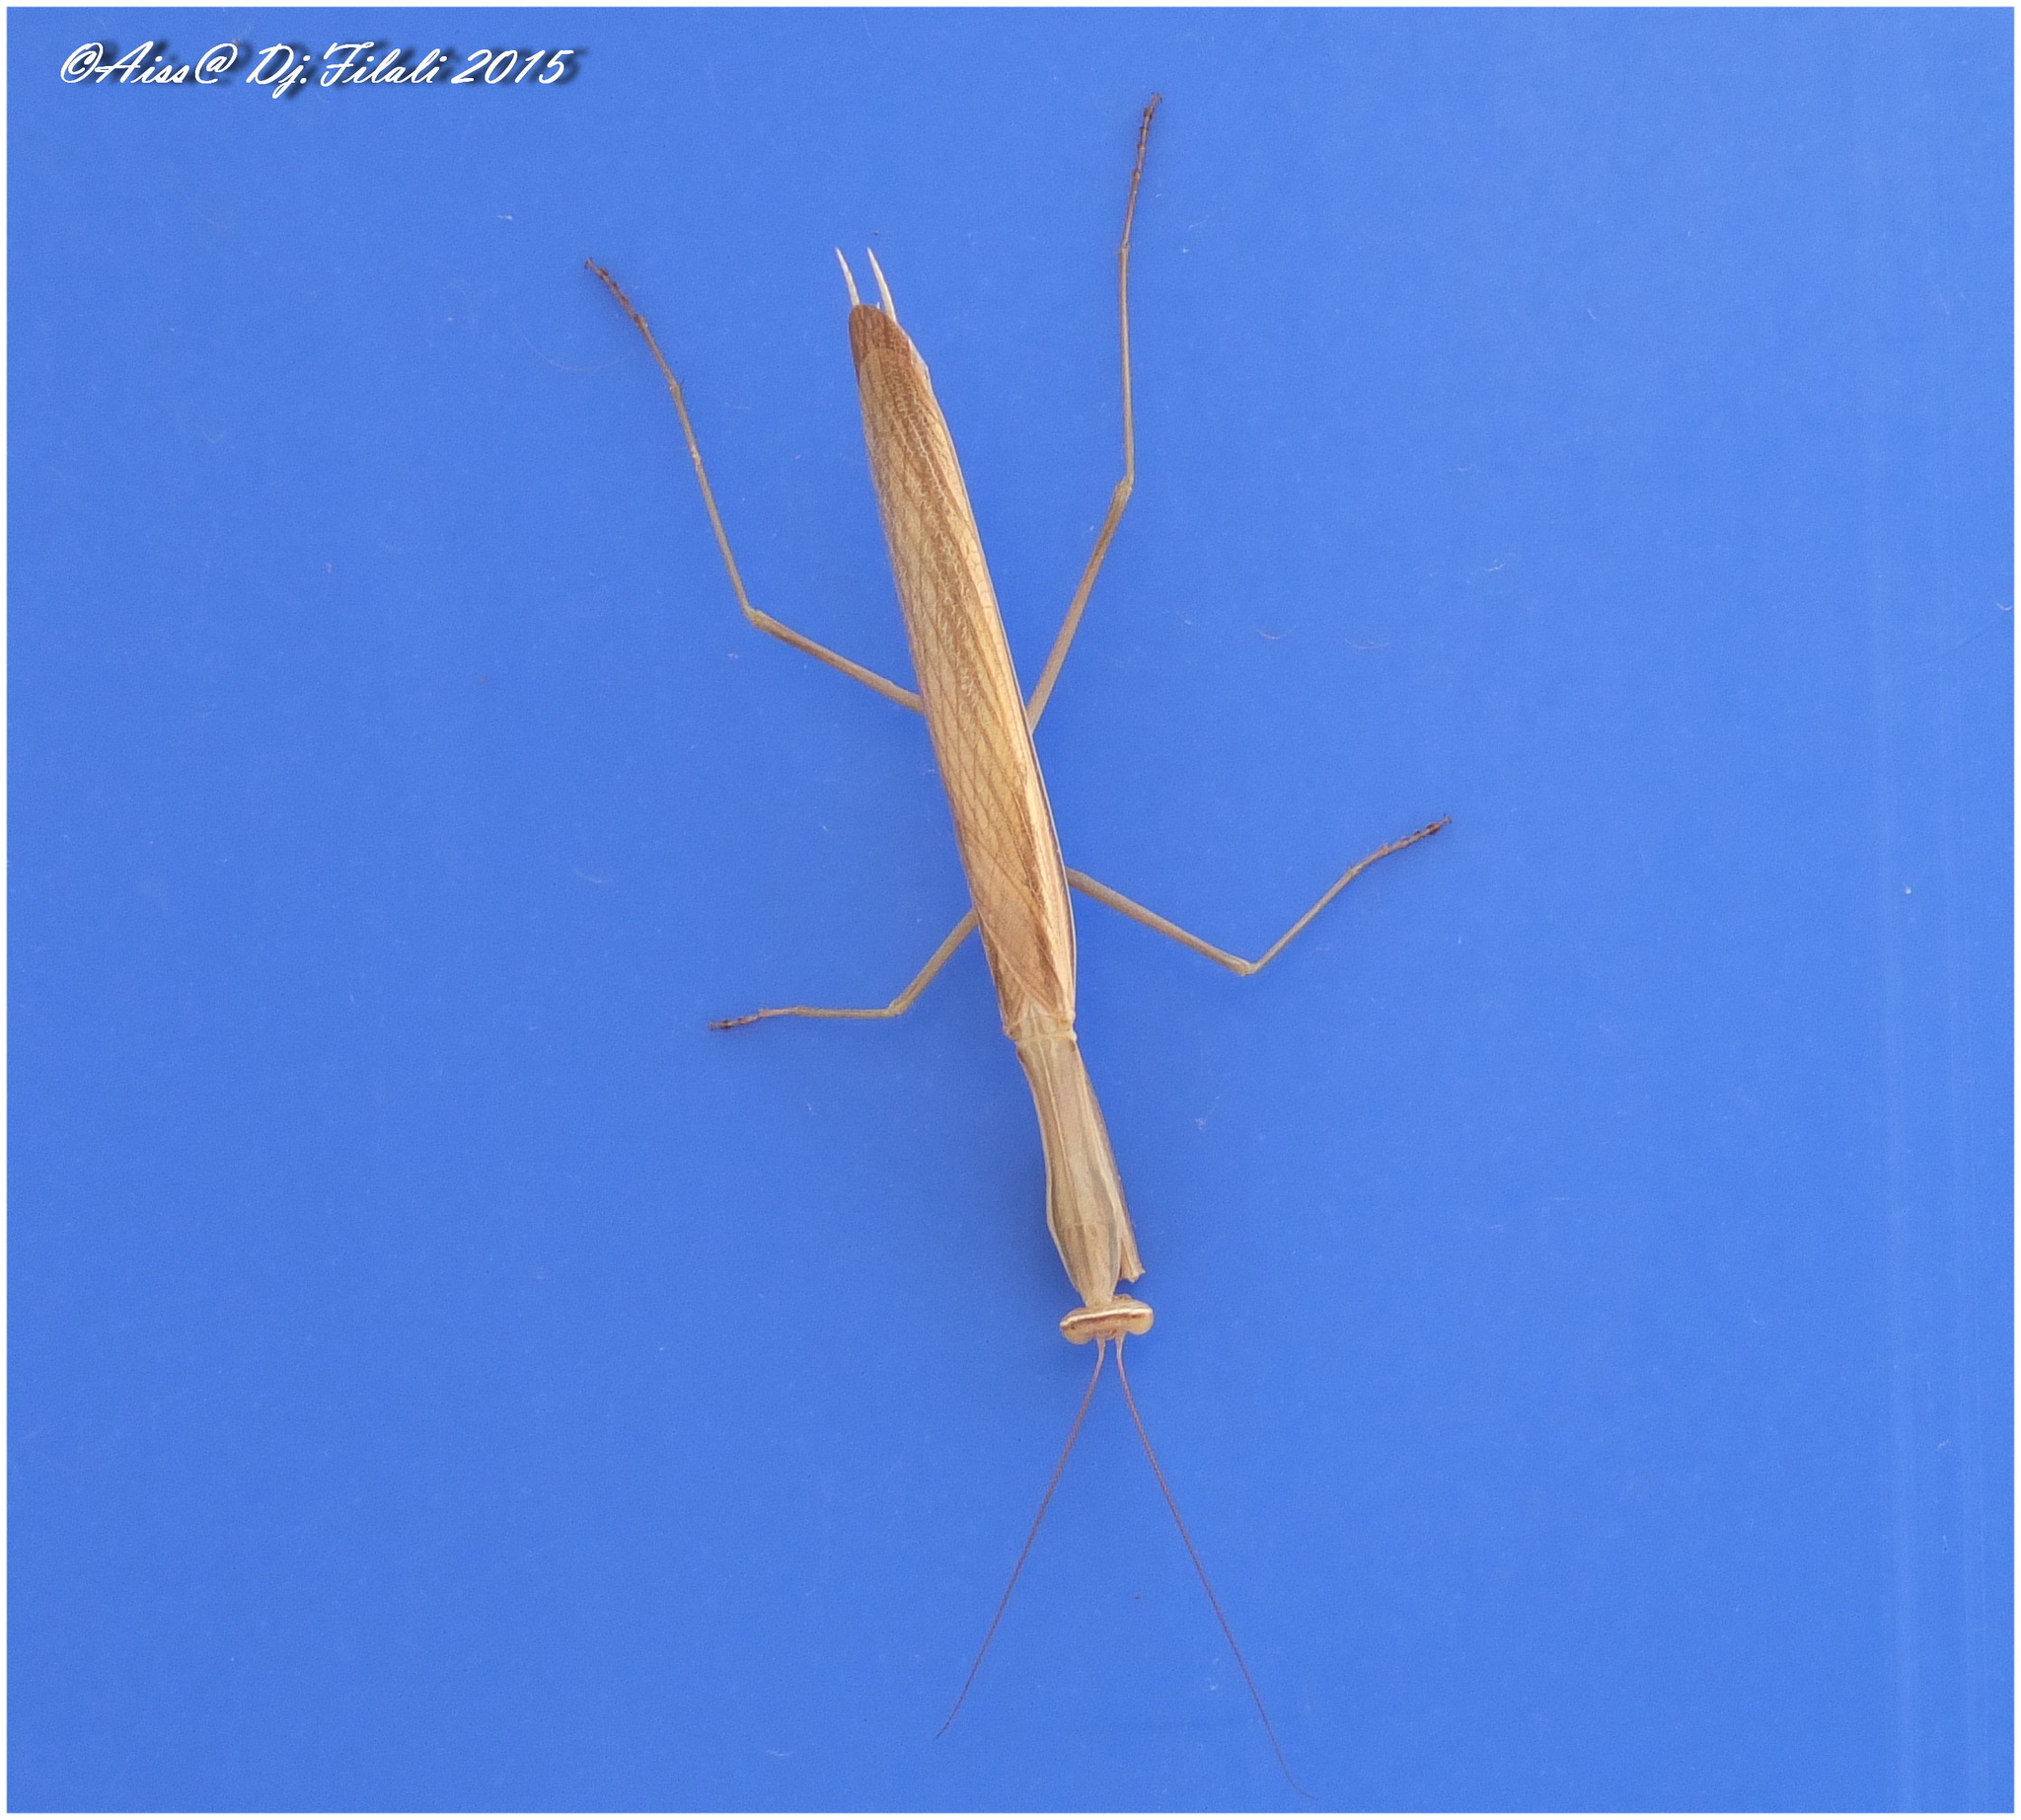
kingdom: Animalia
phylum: Arthropoda
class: Insecta
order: Mantodea
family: Mantidae
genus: Mantis
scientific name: Mantis religiosa
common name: Praying mantis
